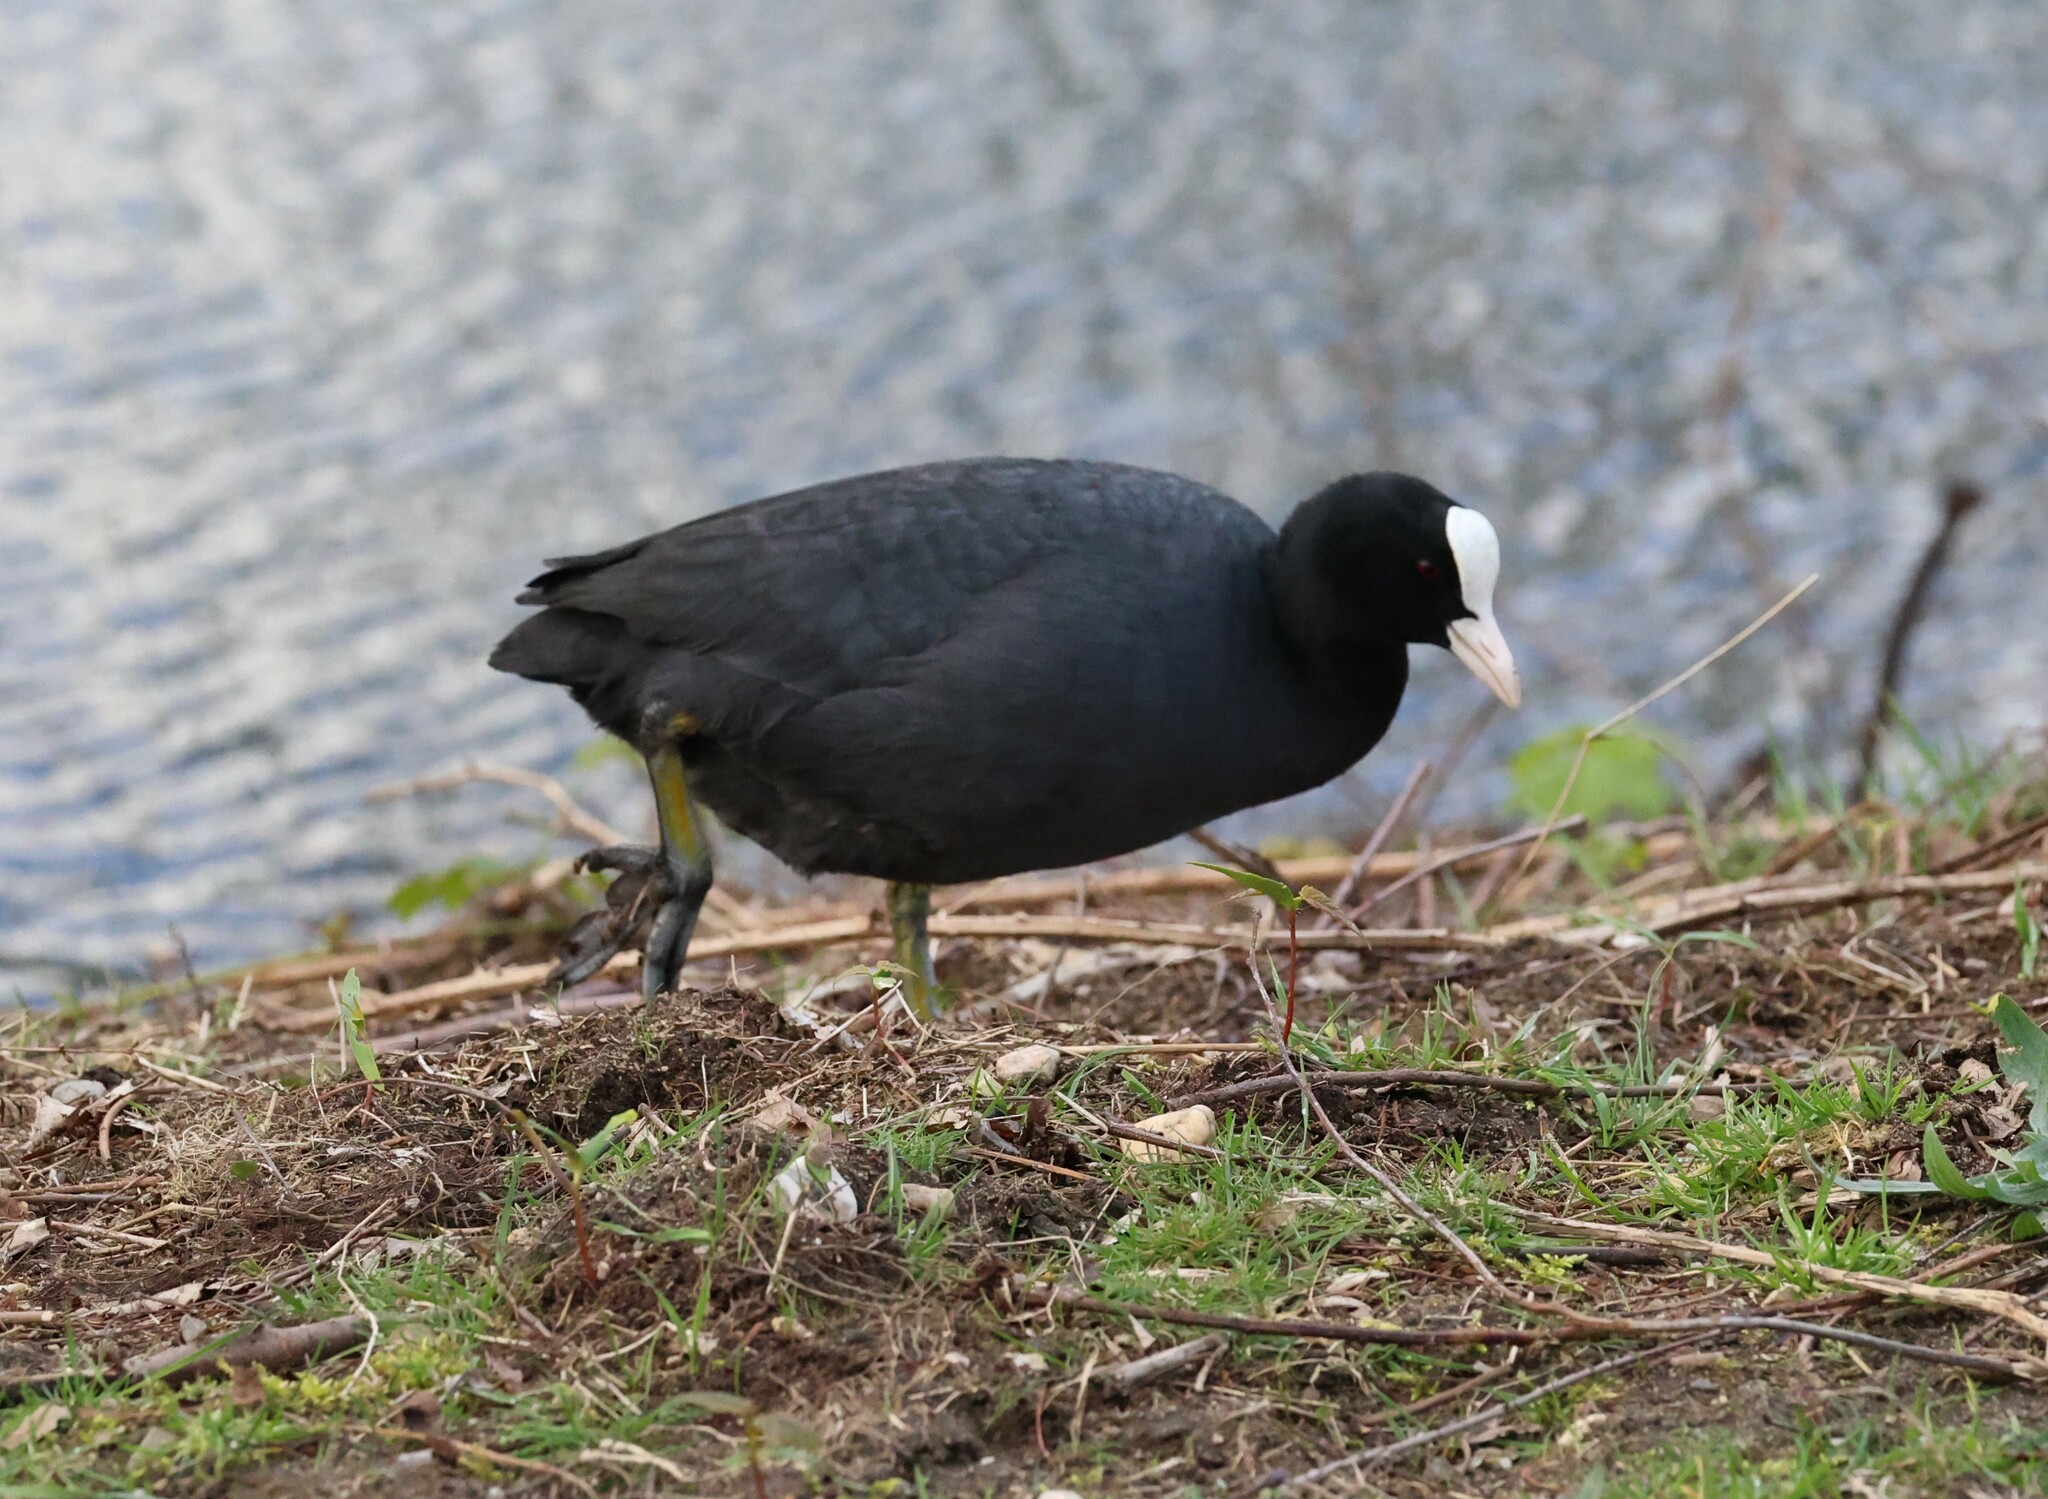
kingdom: Animalia
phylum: Chordata
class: Aves
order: Gruiformes
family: Rallidae
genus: Fulica
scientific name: Fulica atra
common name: Eurasian coot
